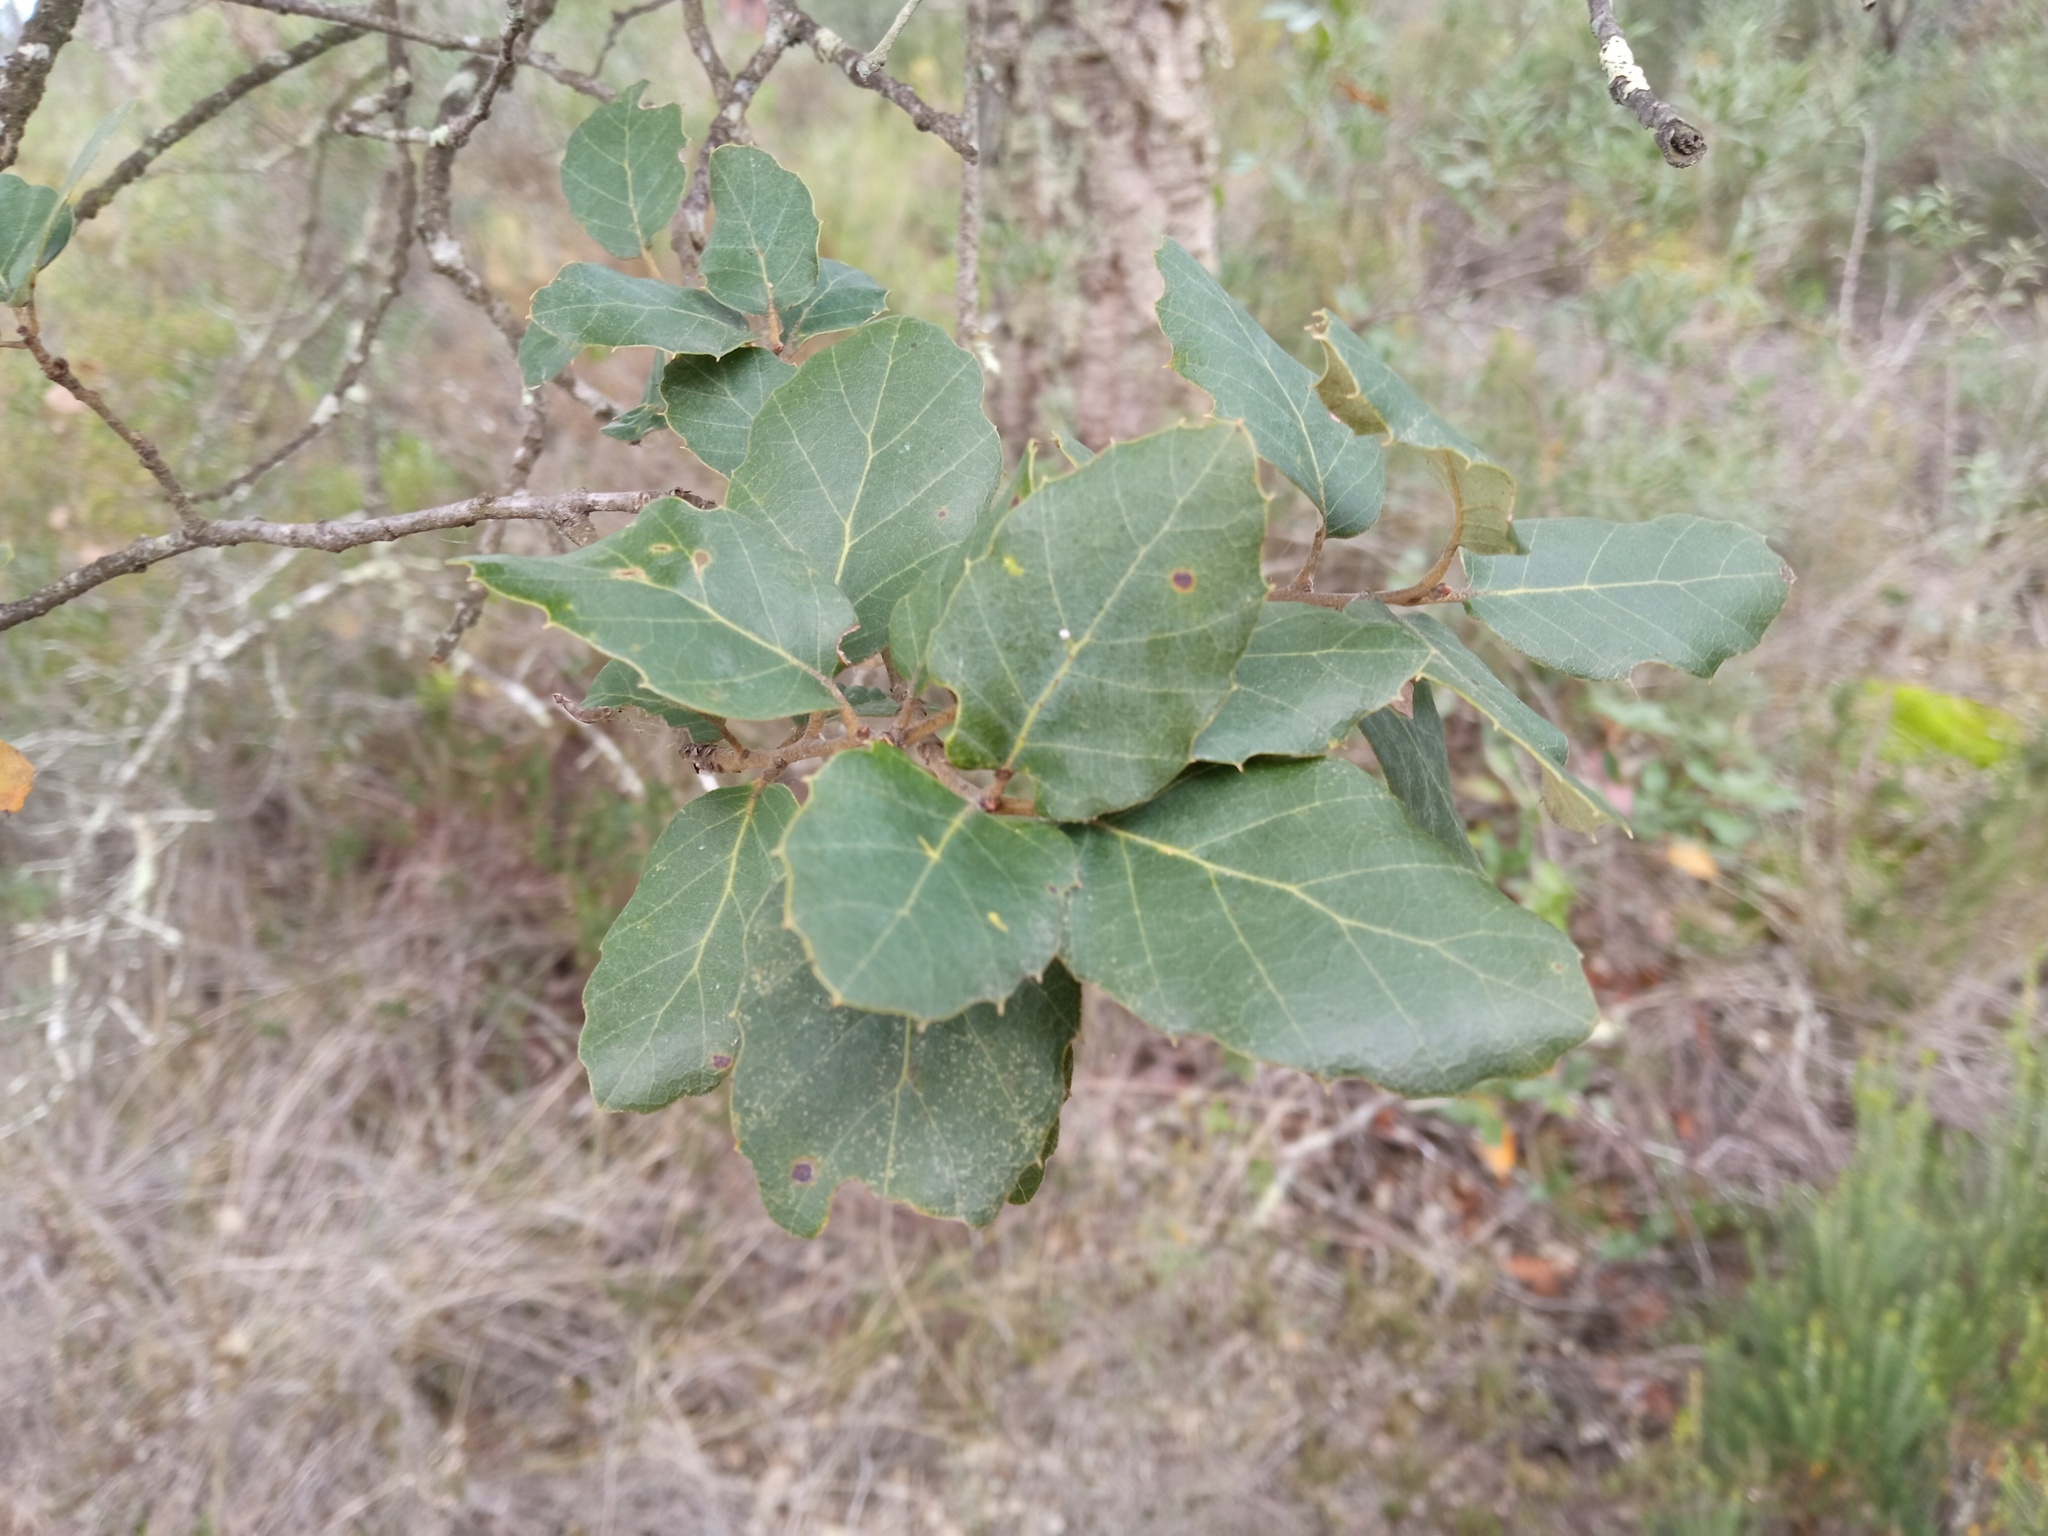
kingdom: Plantae
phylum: Tracheophyta
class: Magnoliopsida
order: Fagales
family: Fagaceae
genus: Quercus
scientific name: Quercus suber
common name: Cork oak
